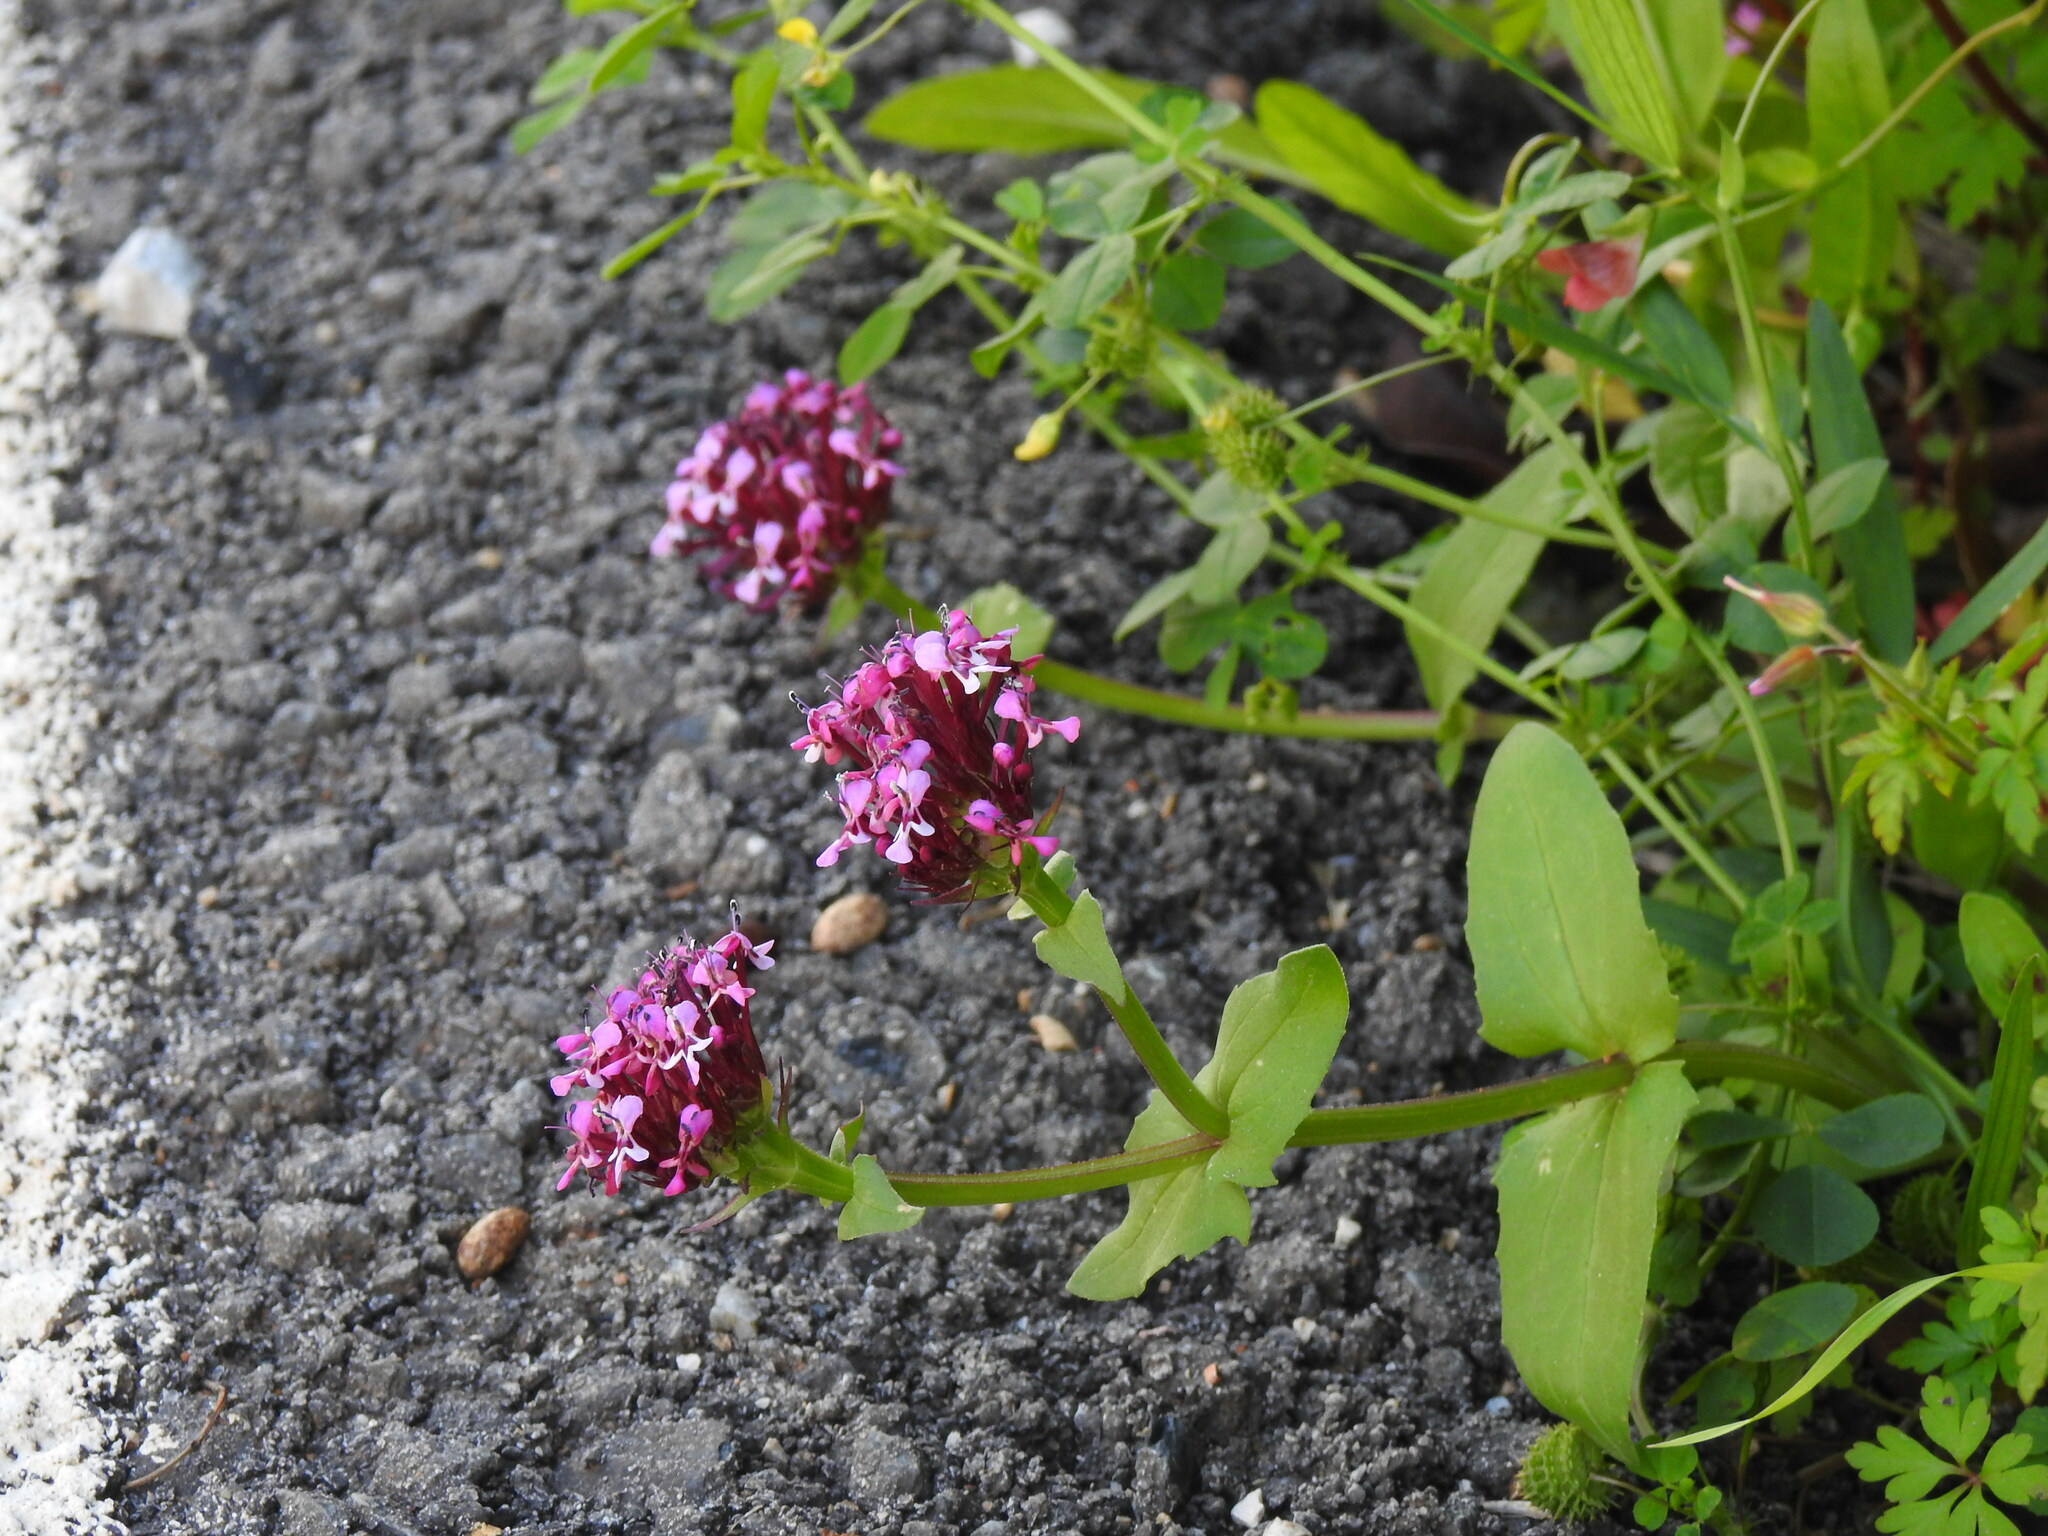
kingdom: Plantae
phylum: Tracheophyta
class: Magnoliopsida
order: Dipsacales
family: Caprifoliaceae
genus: Fedia
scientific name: Fedia cornucopiae
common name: Horn-of-plenty
